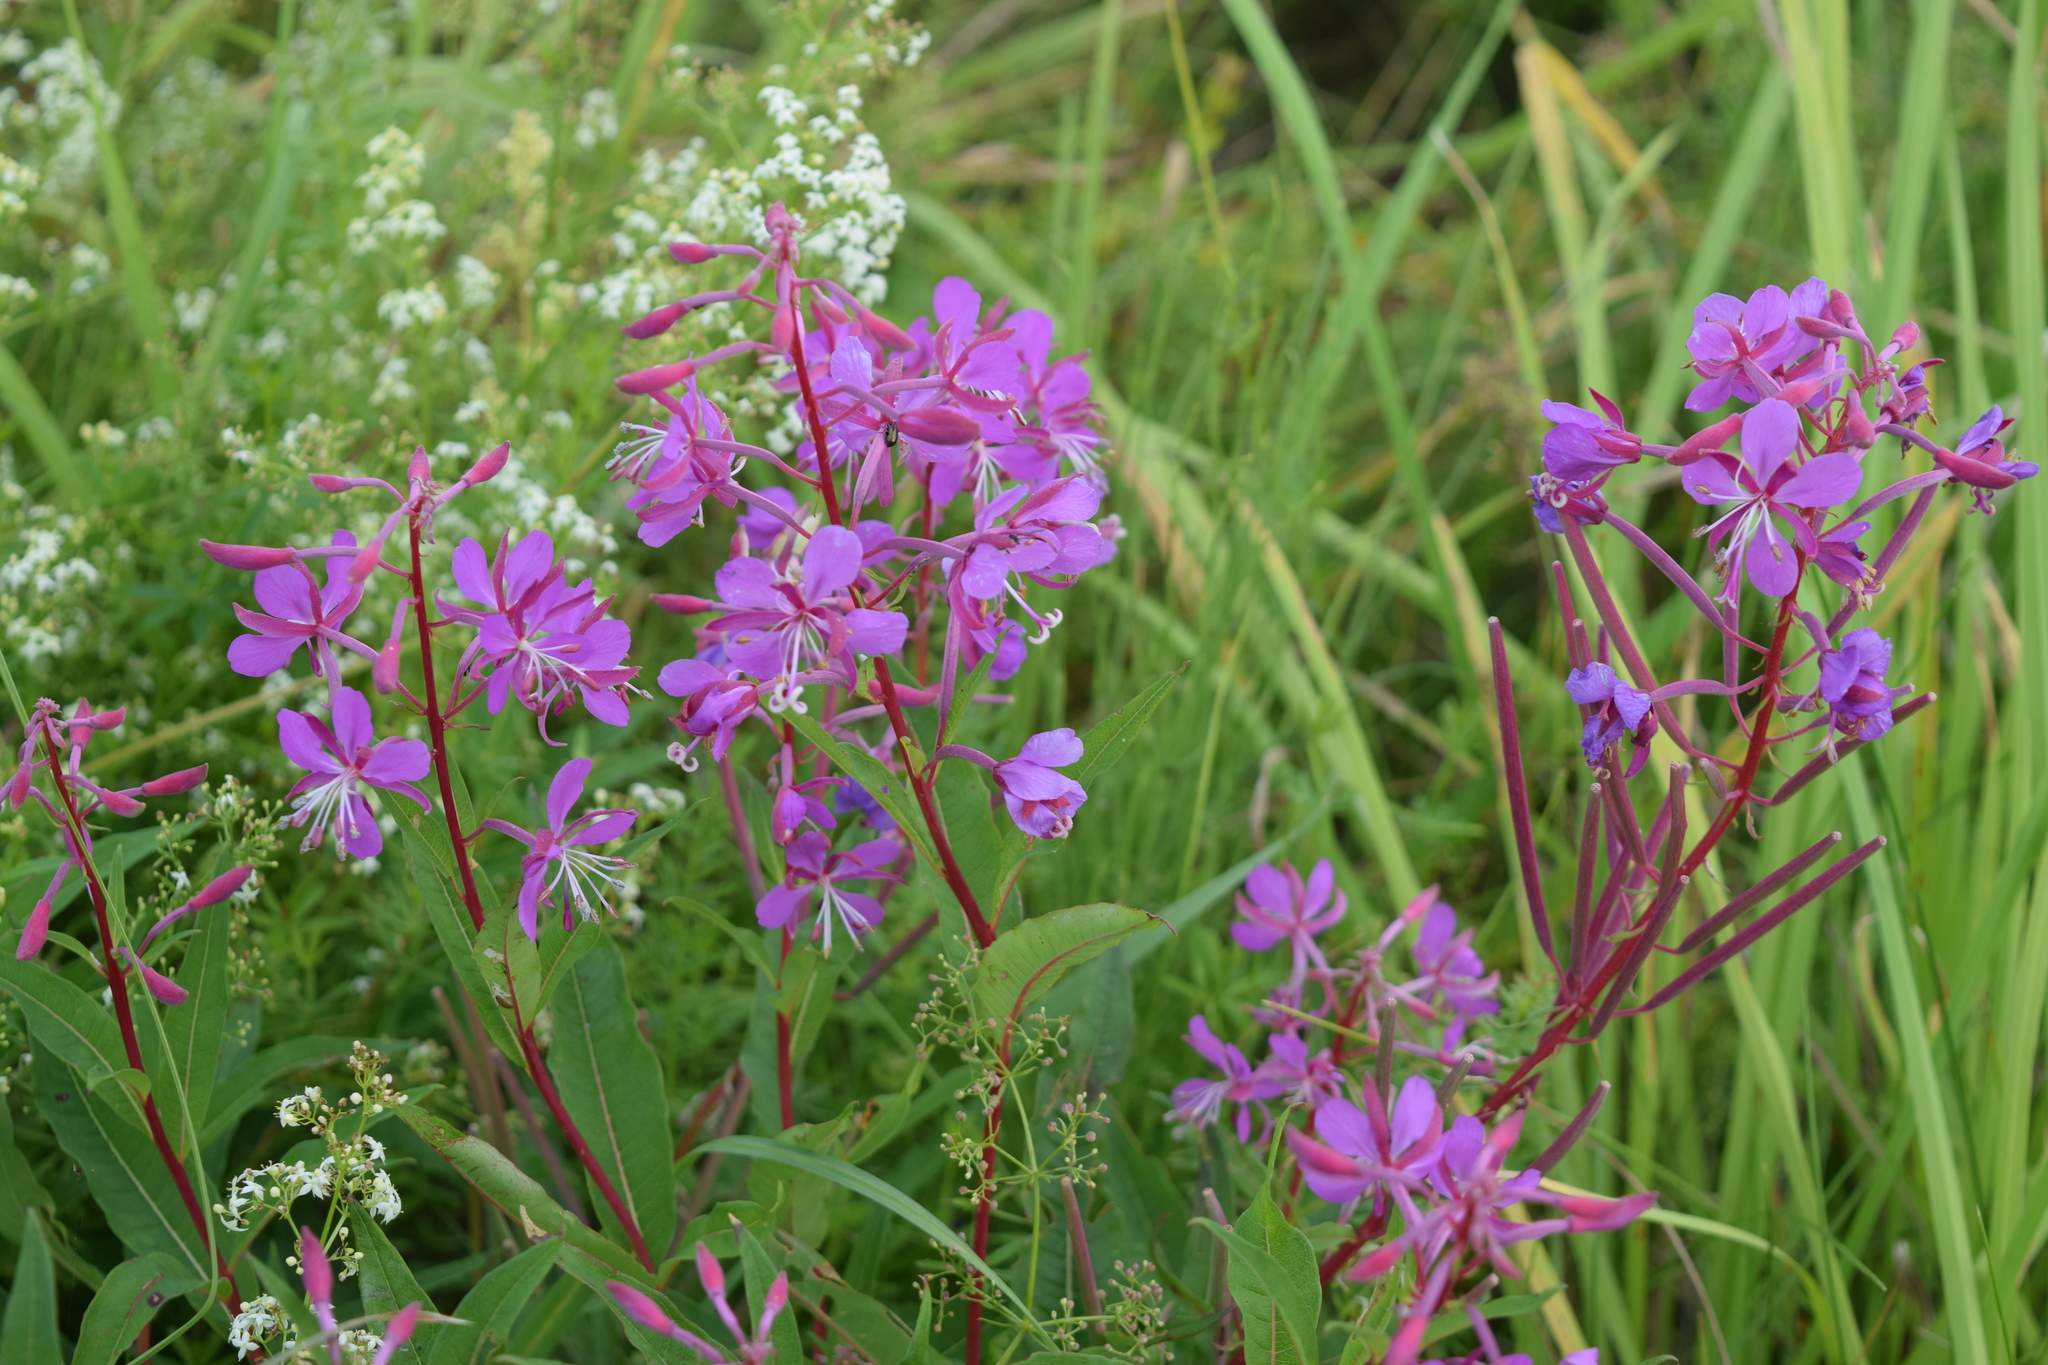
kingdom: Plantae
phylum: Tracheophyta
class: Magnoliopsida
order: Myrtales
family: Onagraceae
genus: Chamaenerion
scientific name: Chamaenerion angustifolium
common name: Fireweed
